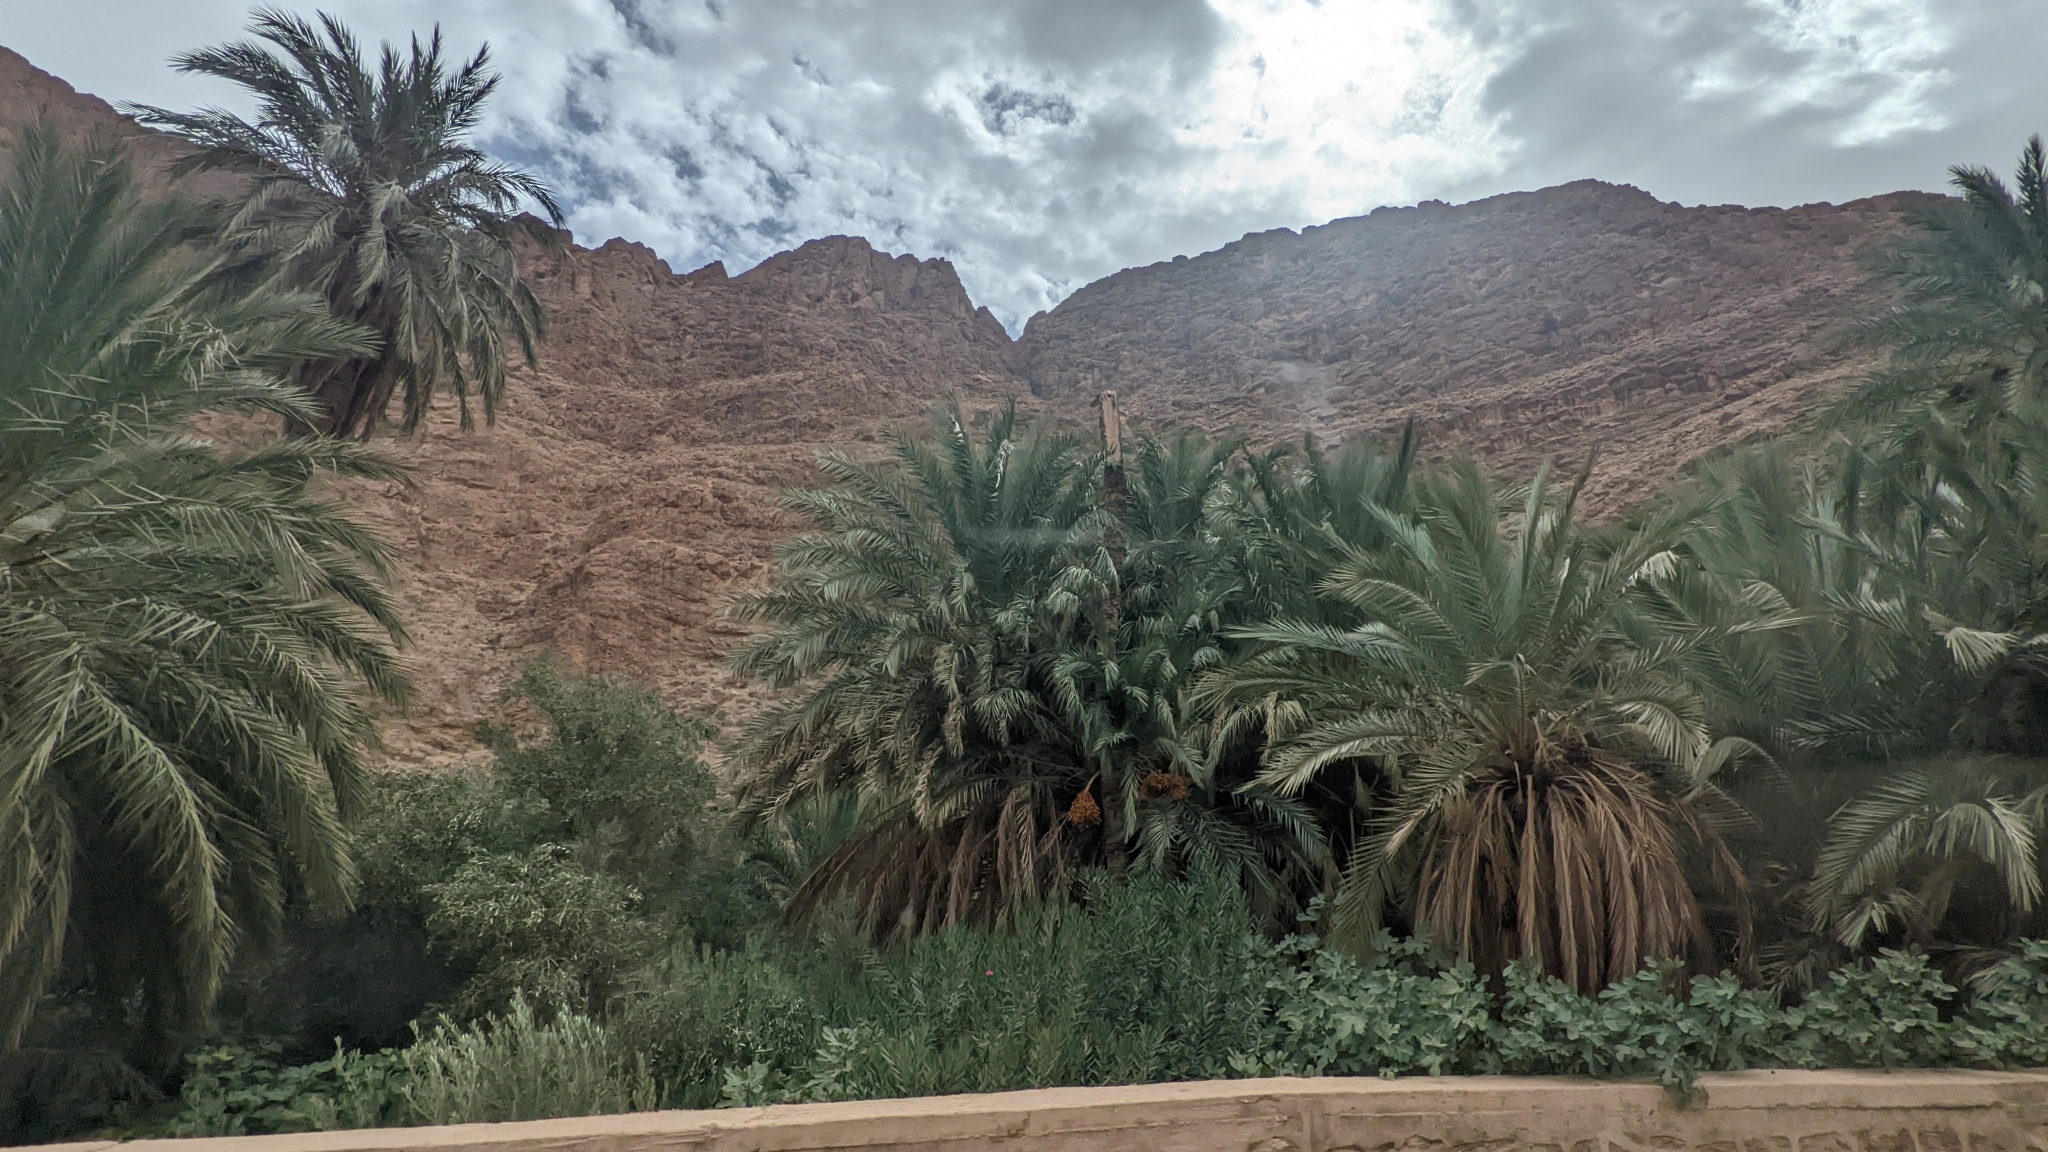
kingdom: Plantae
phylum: Tracheophyta
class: Liliopsida
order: Arecales
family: Arecaceae
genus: Phoenix
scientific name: Phoenix dactylifera
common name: Date palm
